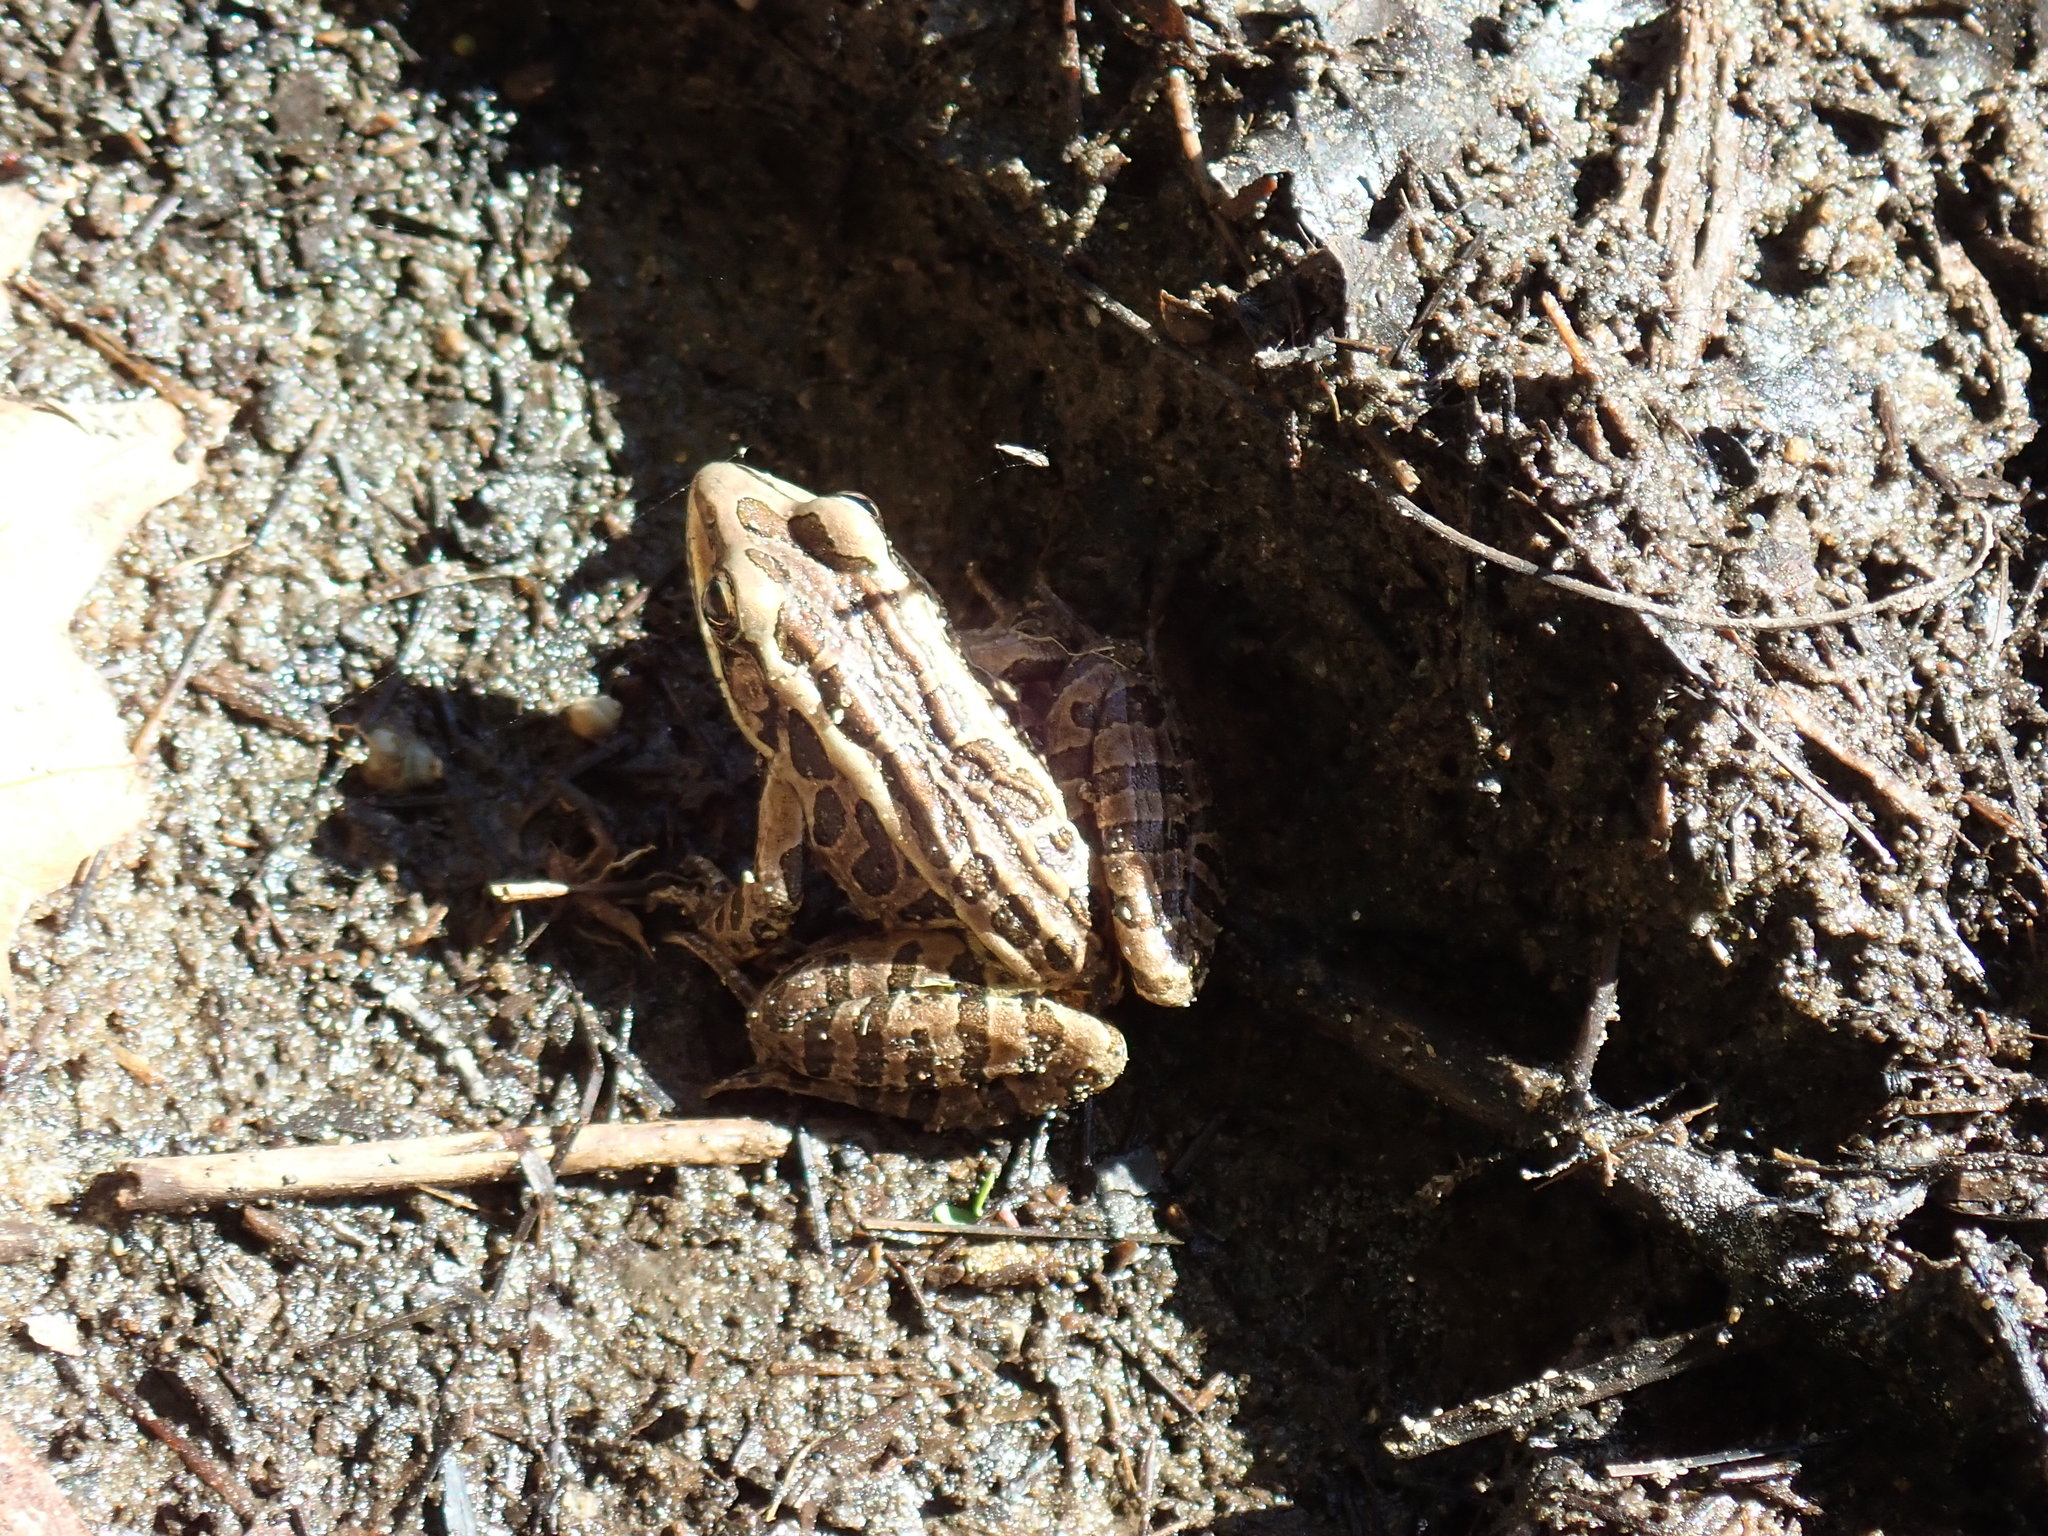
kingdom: Animalia
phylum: Chordata
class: Amphibia
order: Anura
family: Ranidae
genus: Lithobates
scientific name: Lithobates palustris
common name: Pickerel frog
